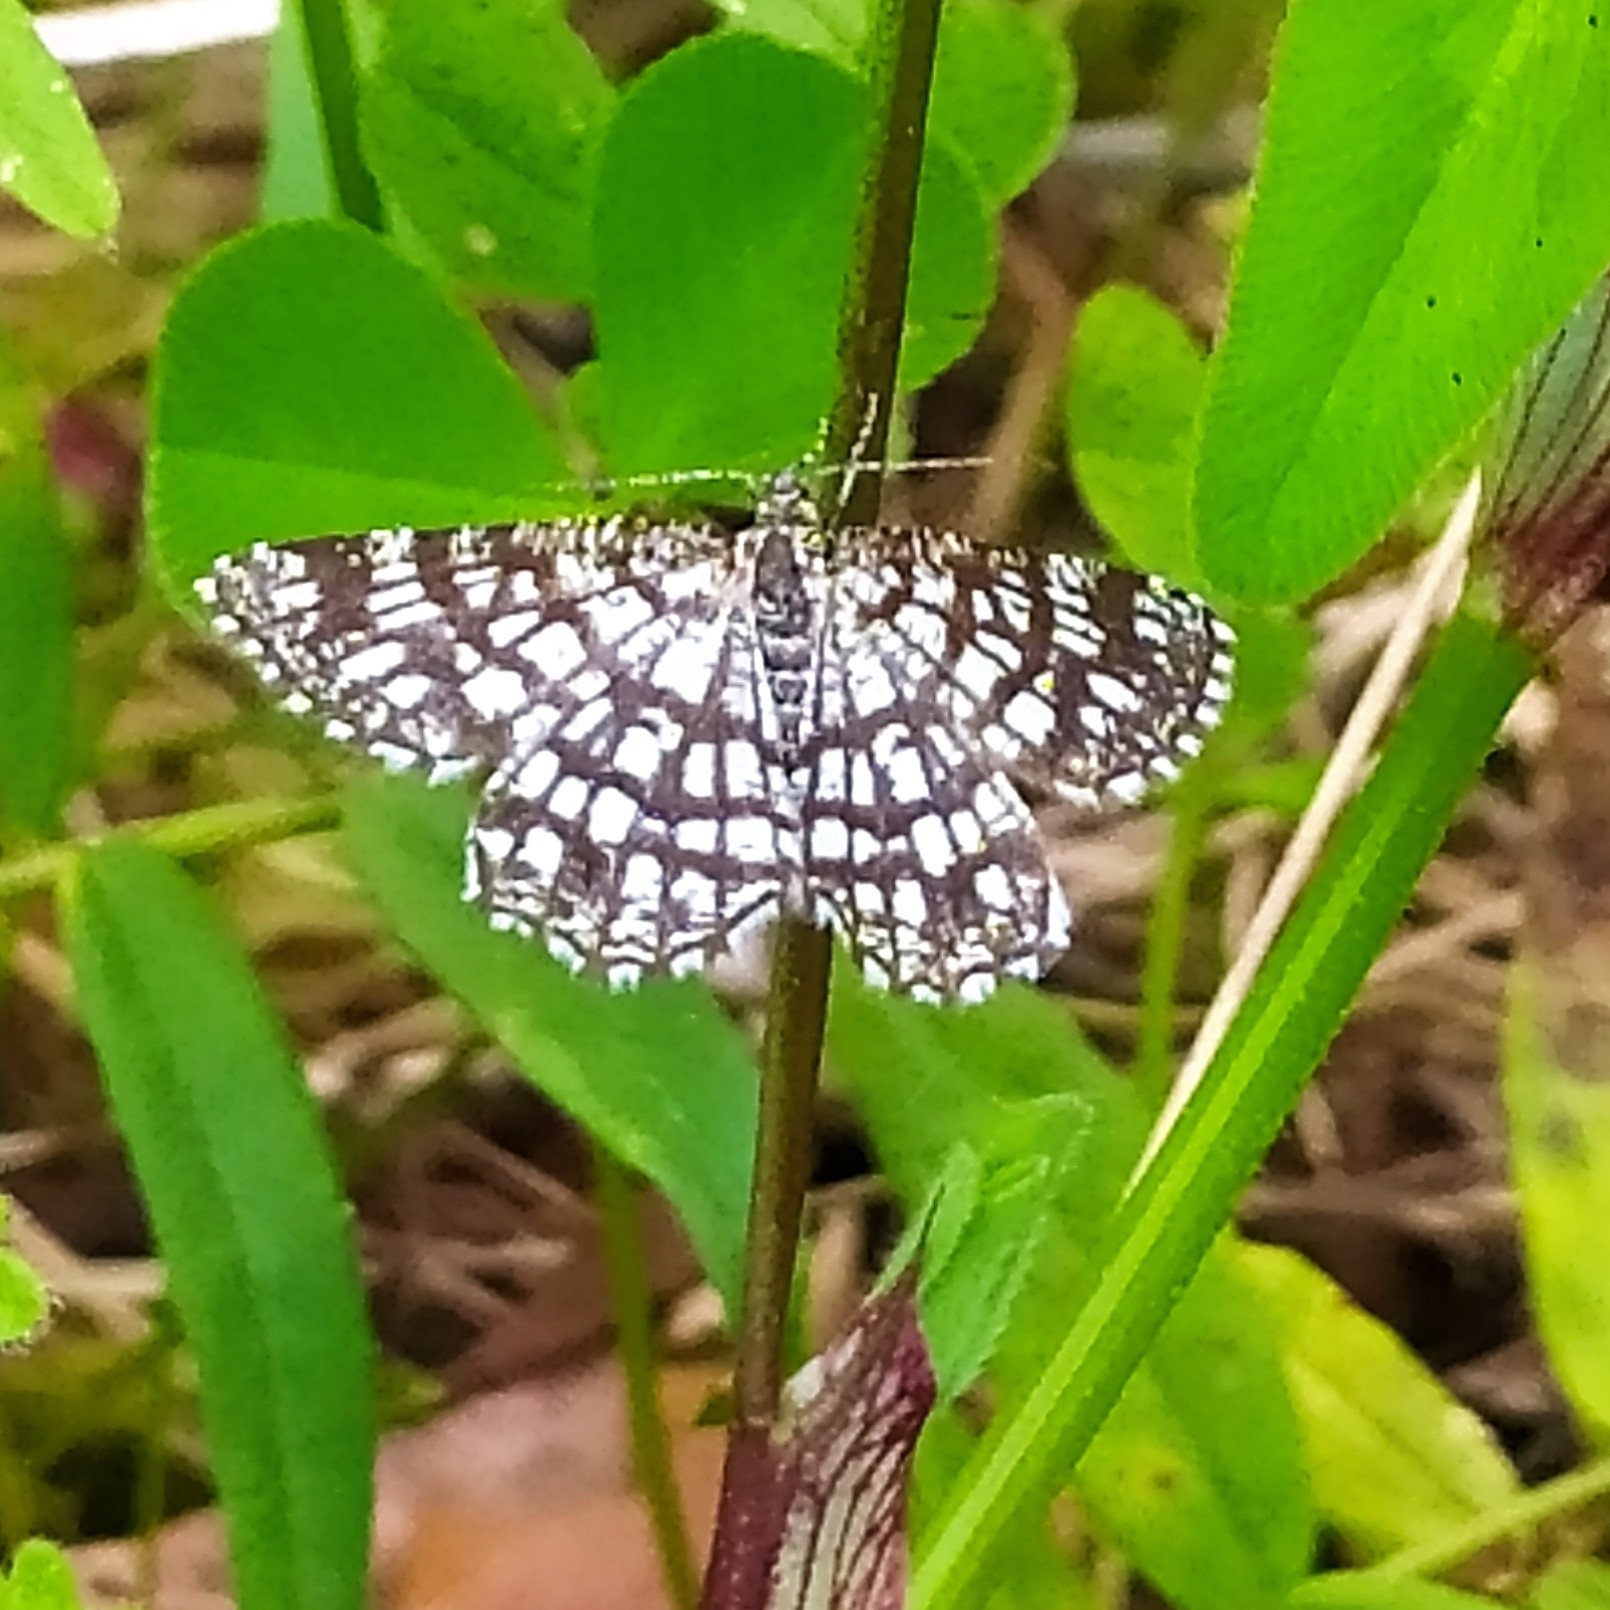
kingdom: Animalia
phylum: Arthropoda
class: Insecta
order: Lepidoptera
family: Geometridae
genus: Chiasmia
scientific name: Chiasmia clathrata
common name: Latticed heath
